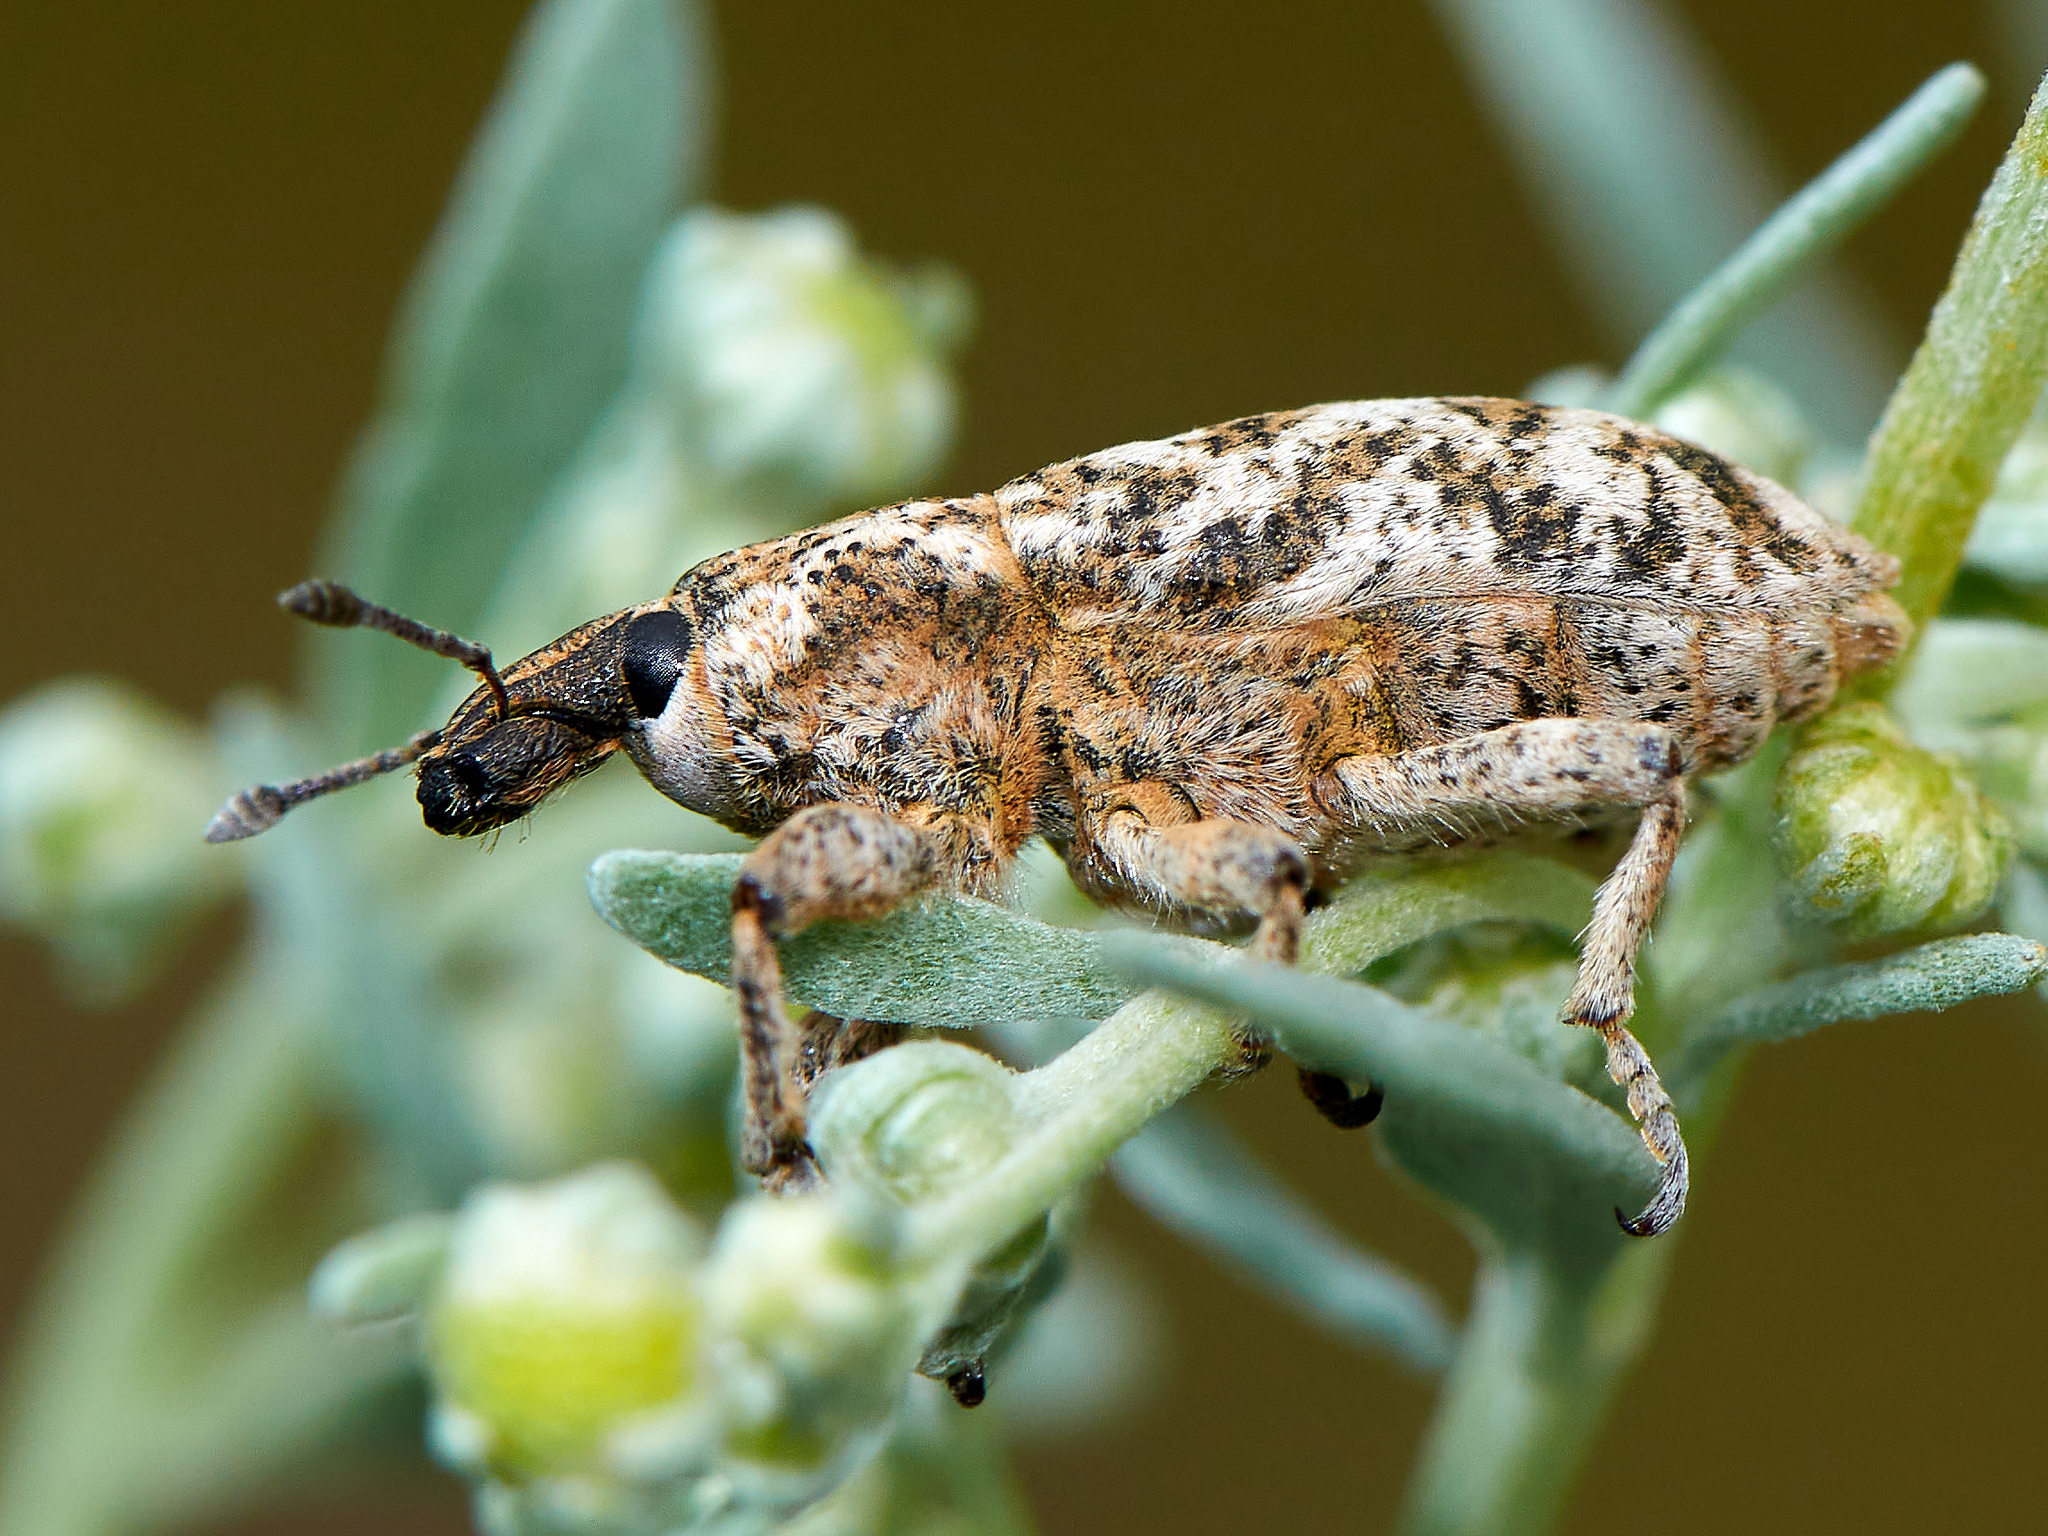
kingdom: Animalia
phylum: Arthropoda
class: Insecta
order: Coleoptera
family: Curculionidae
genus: Cyphocleonus
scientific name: Cyphocleonus dealbatus
